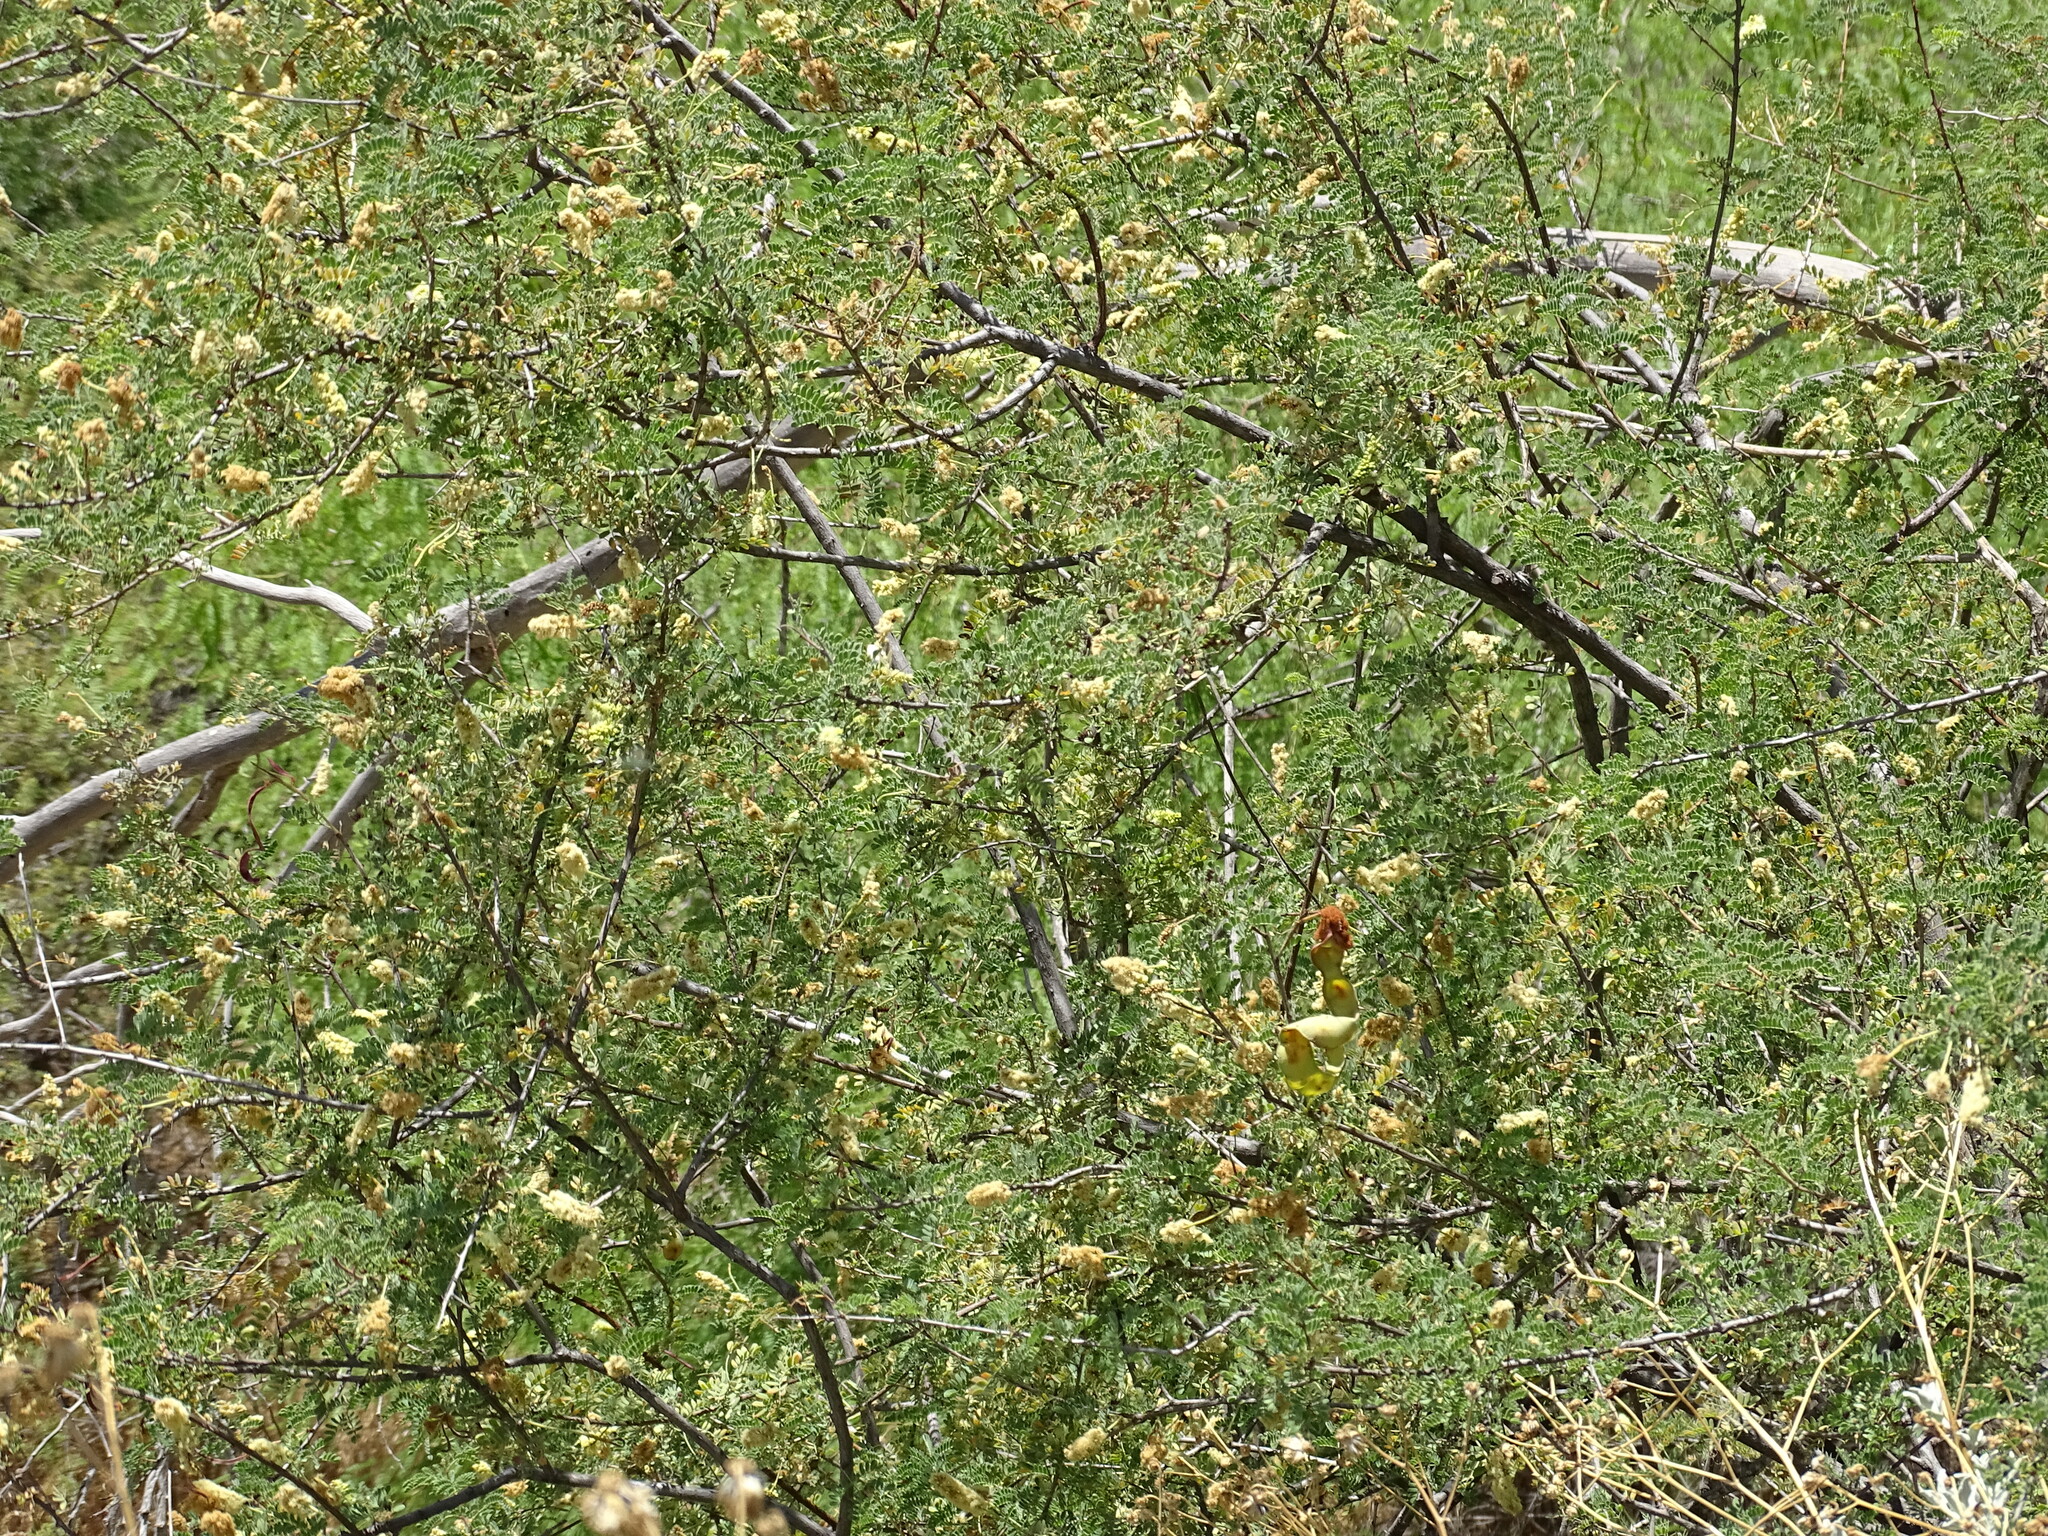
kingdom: Plantae
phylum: Tracheophyta
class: Magnoliopsida
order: Fabales
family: Fabaceae
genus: Senegalia
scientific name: Senegalia greggii
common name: Texas-mimosa
